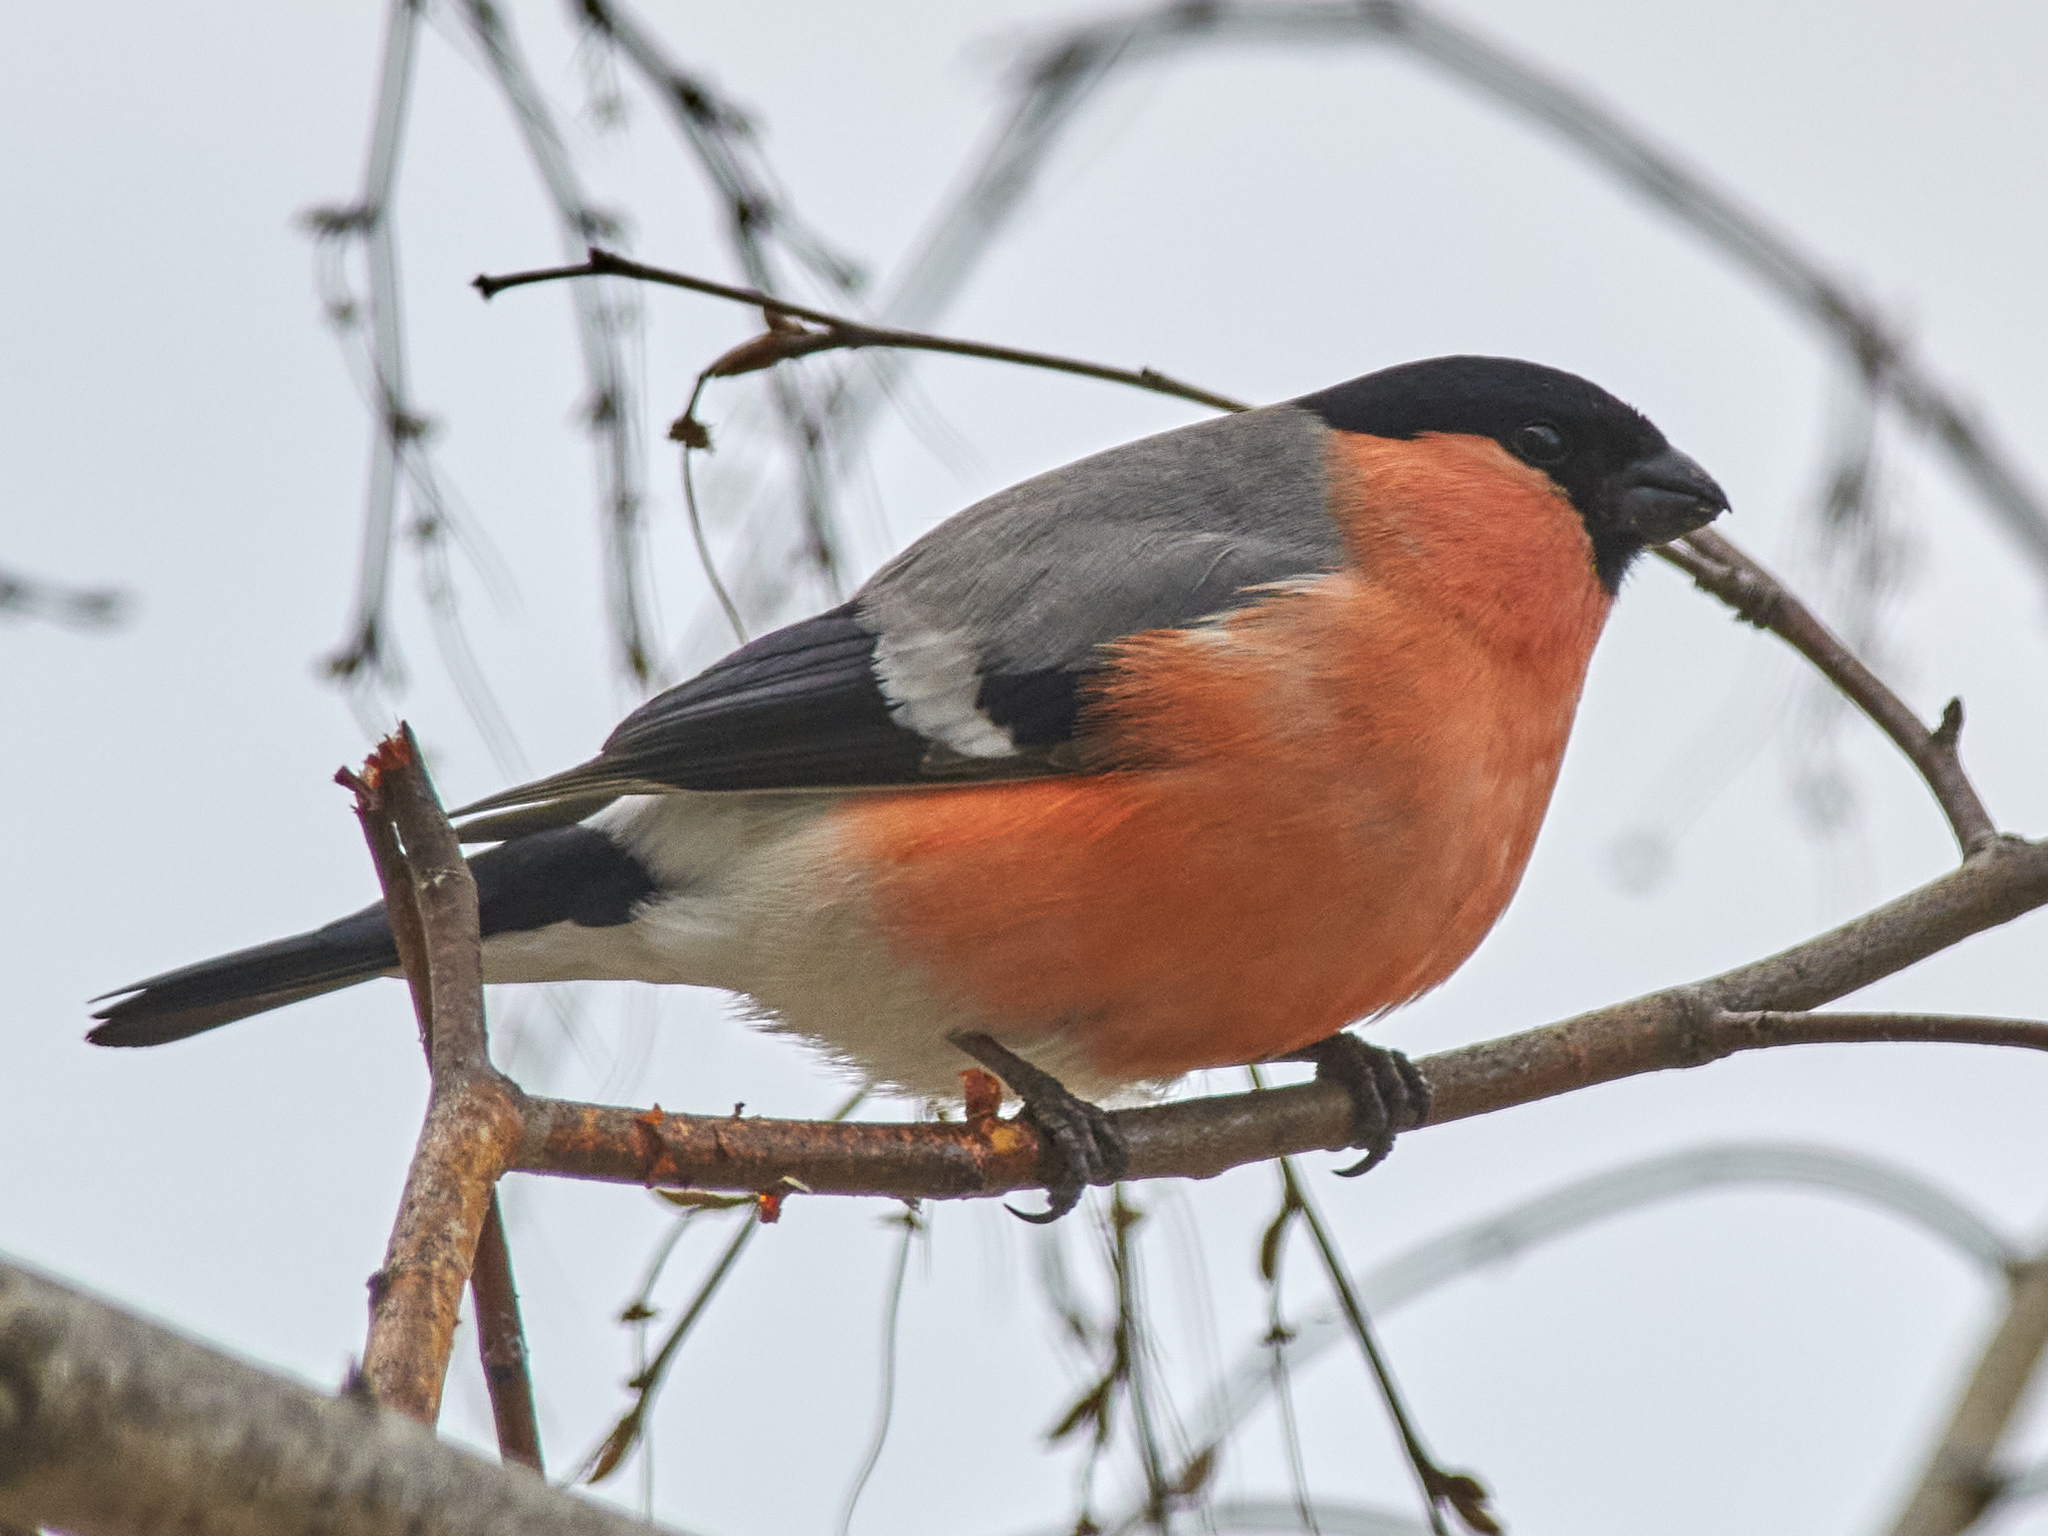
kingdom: Animalia
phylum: Chordata
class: Aves
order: Passeriformes
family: Fringillidae
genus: Pyrrhula
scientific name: Pyrrhula pyrrhula
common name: Eurasian bullfinch
